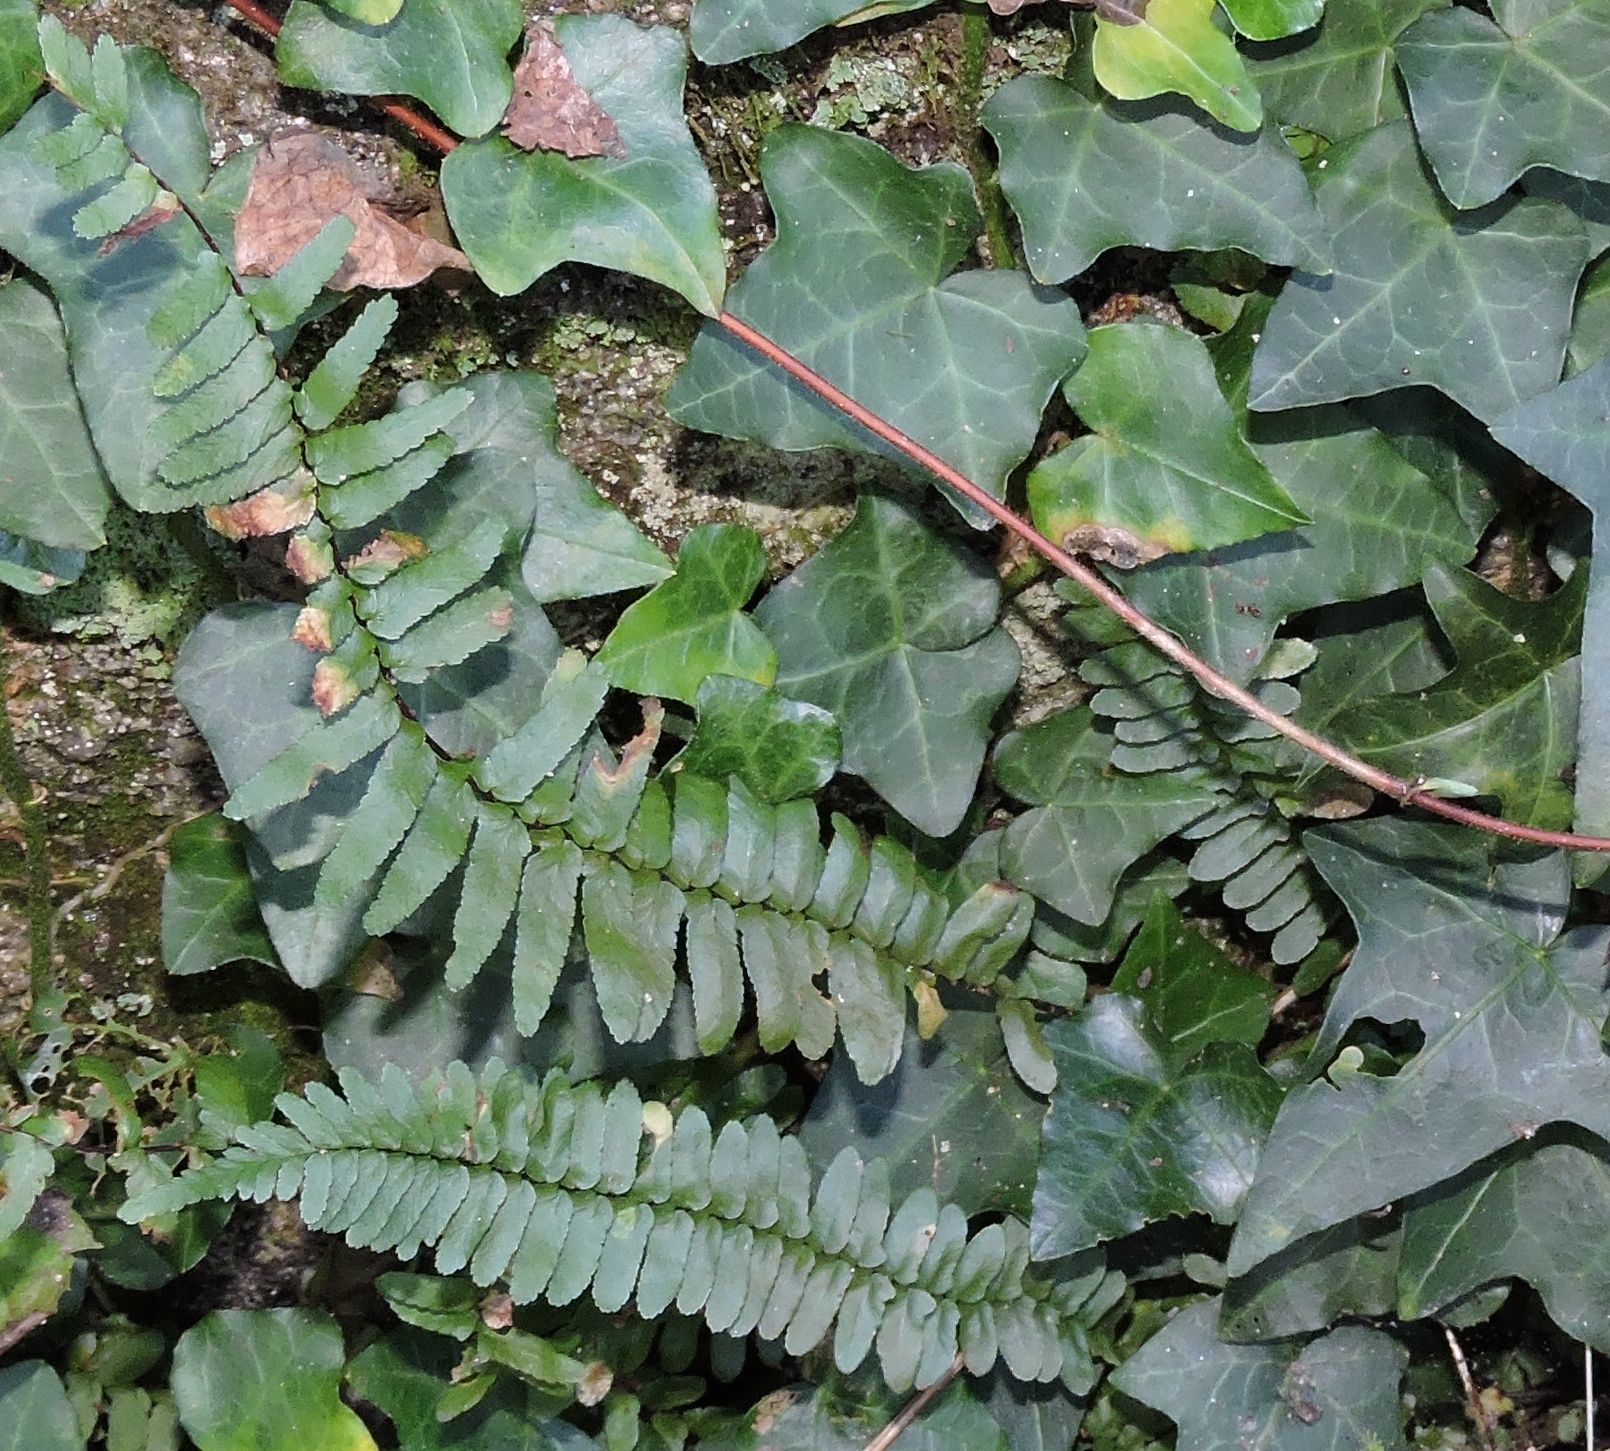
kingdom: Plantae
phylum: Tracheophyta
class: Polypodiopsida
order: Polypodiales
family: Aspleniaceae
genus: Asplenium
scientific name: Asplenium platyneuron
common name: Ebony spleenwort
